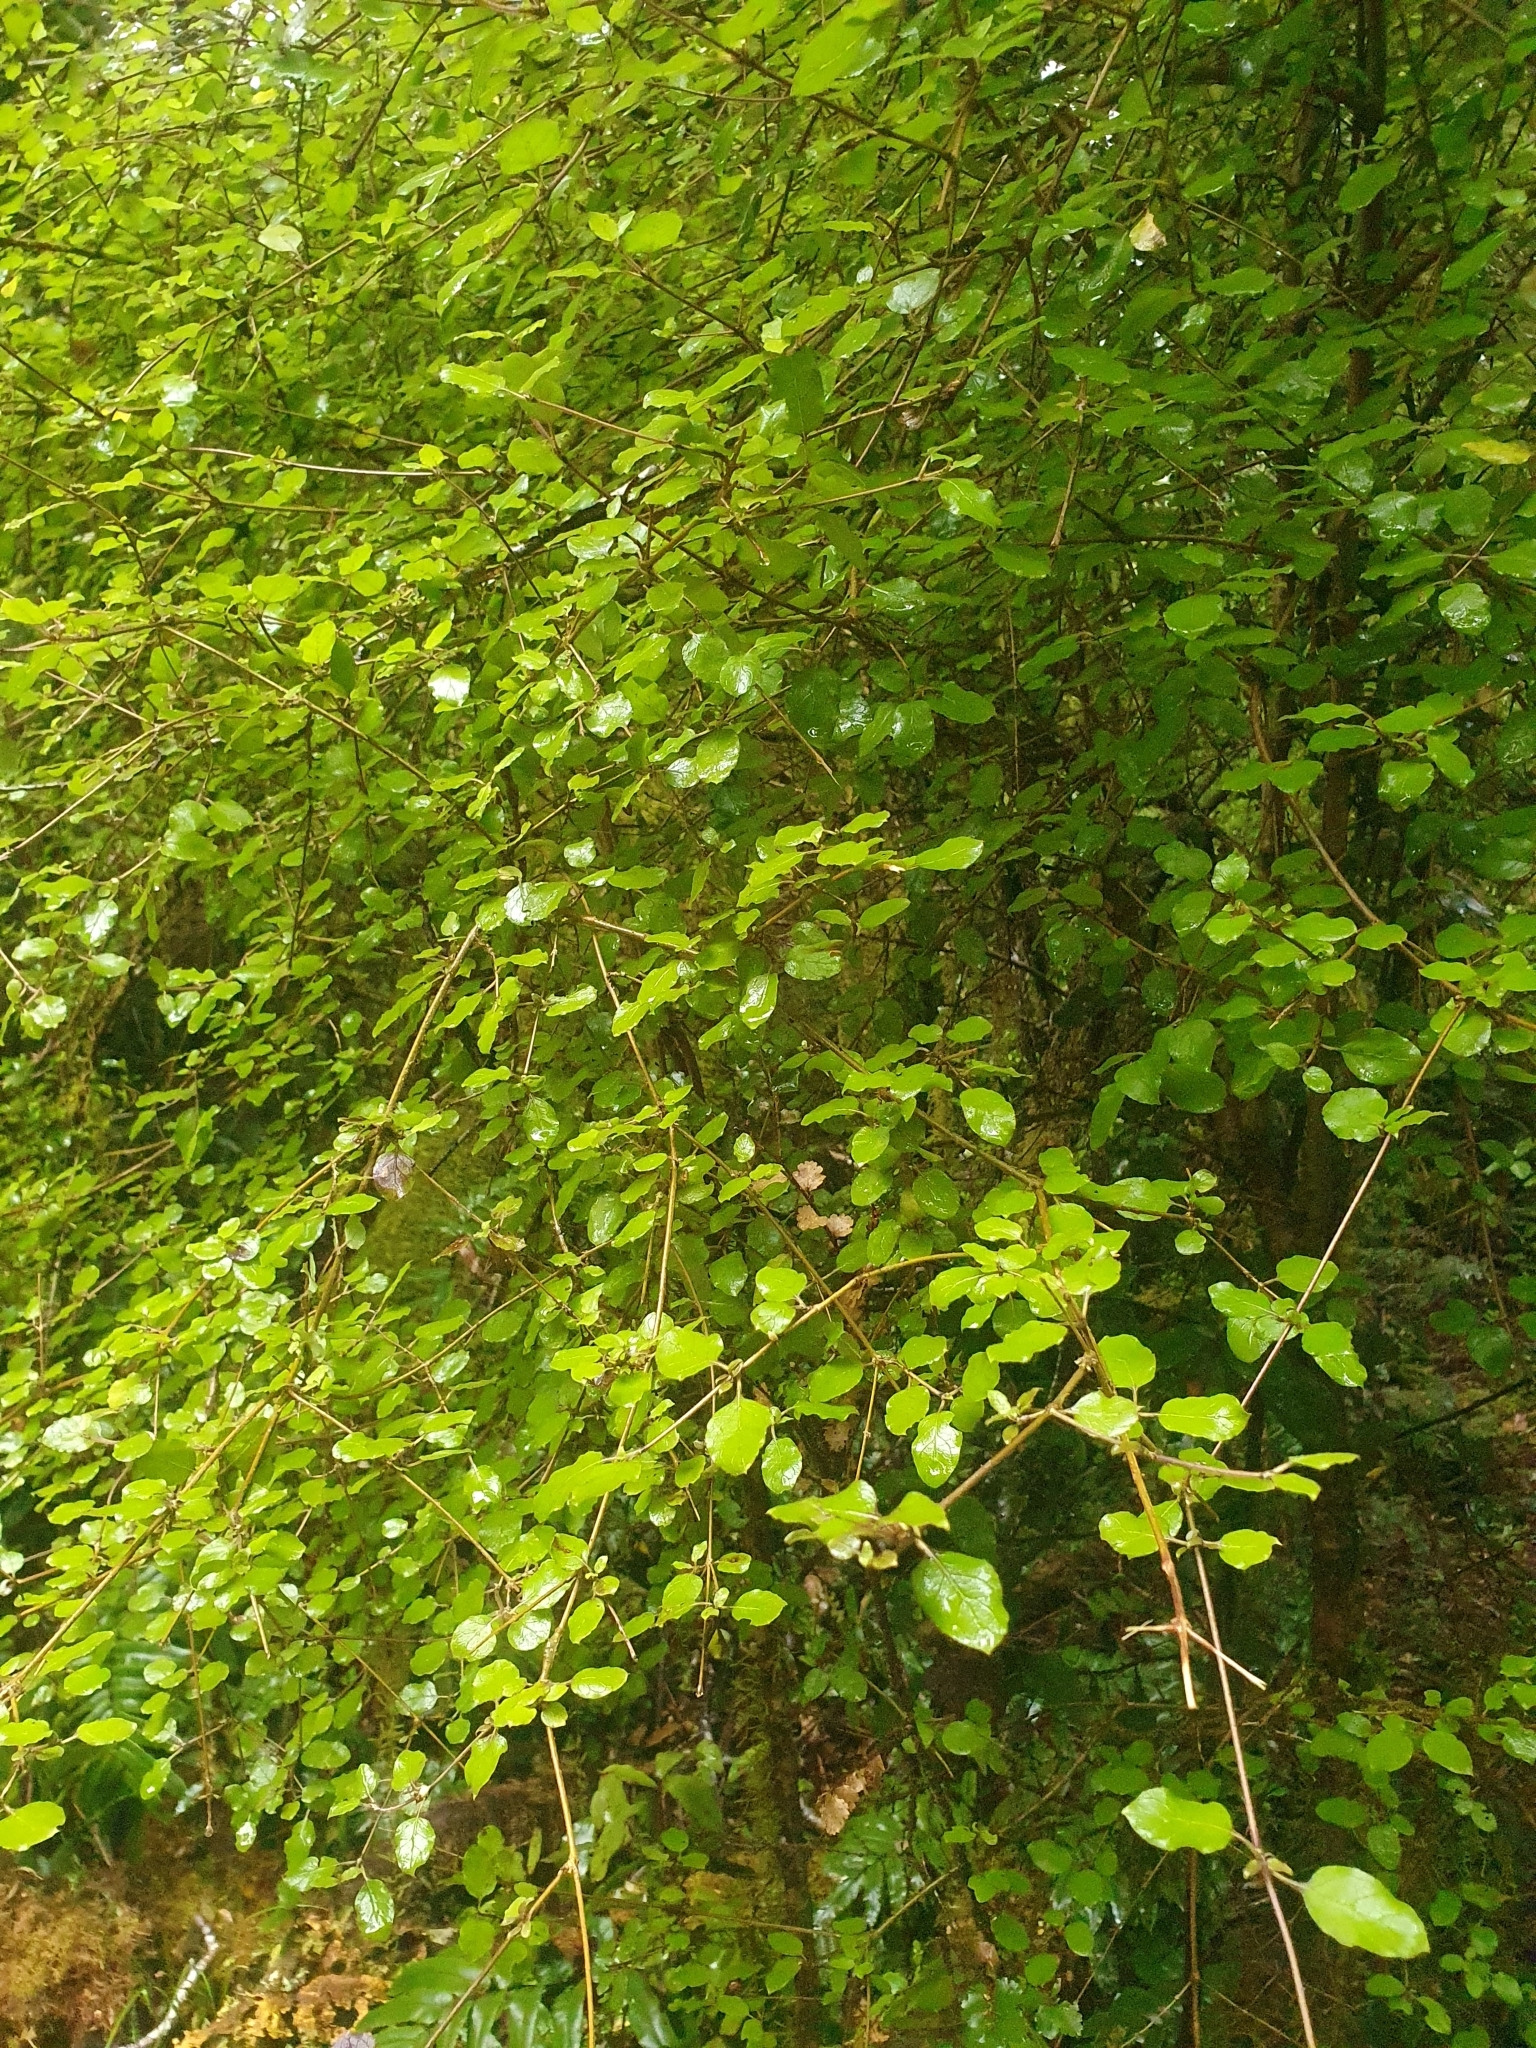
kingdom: Plantae
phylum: Tracheophyta
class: Magnoliopsida
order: Gentianales
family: Rubiaceae
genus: Coprosma
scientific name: Coprosma rotundifolia
